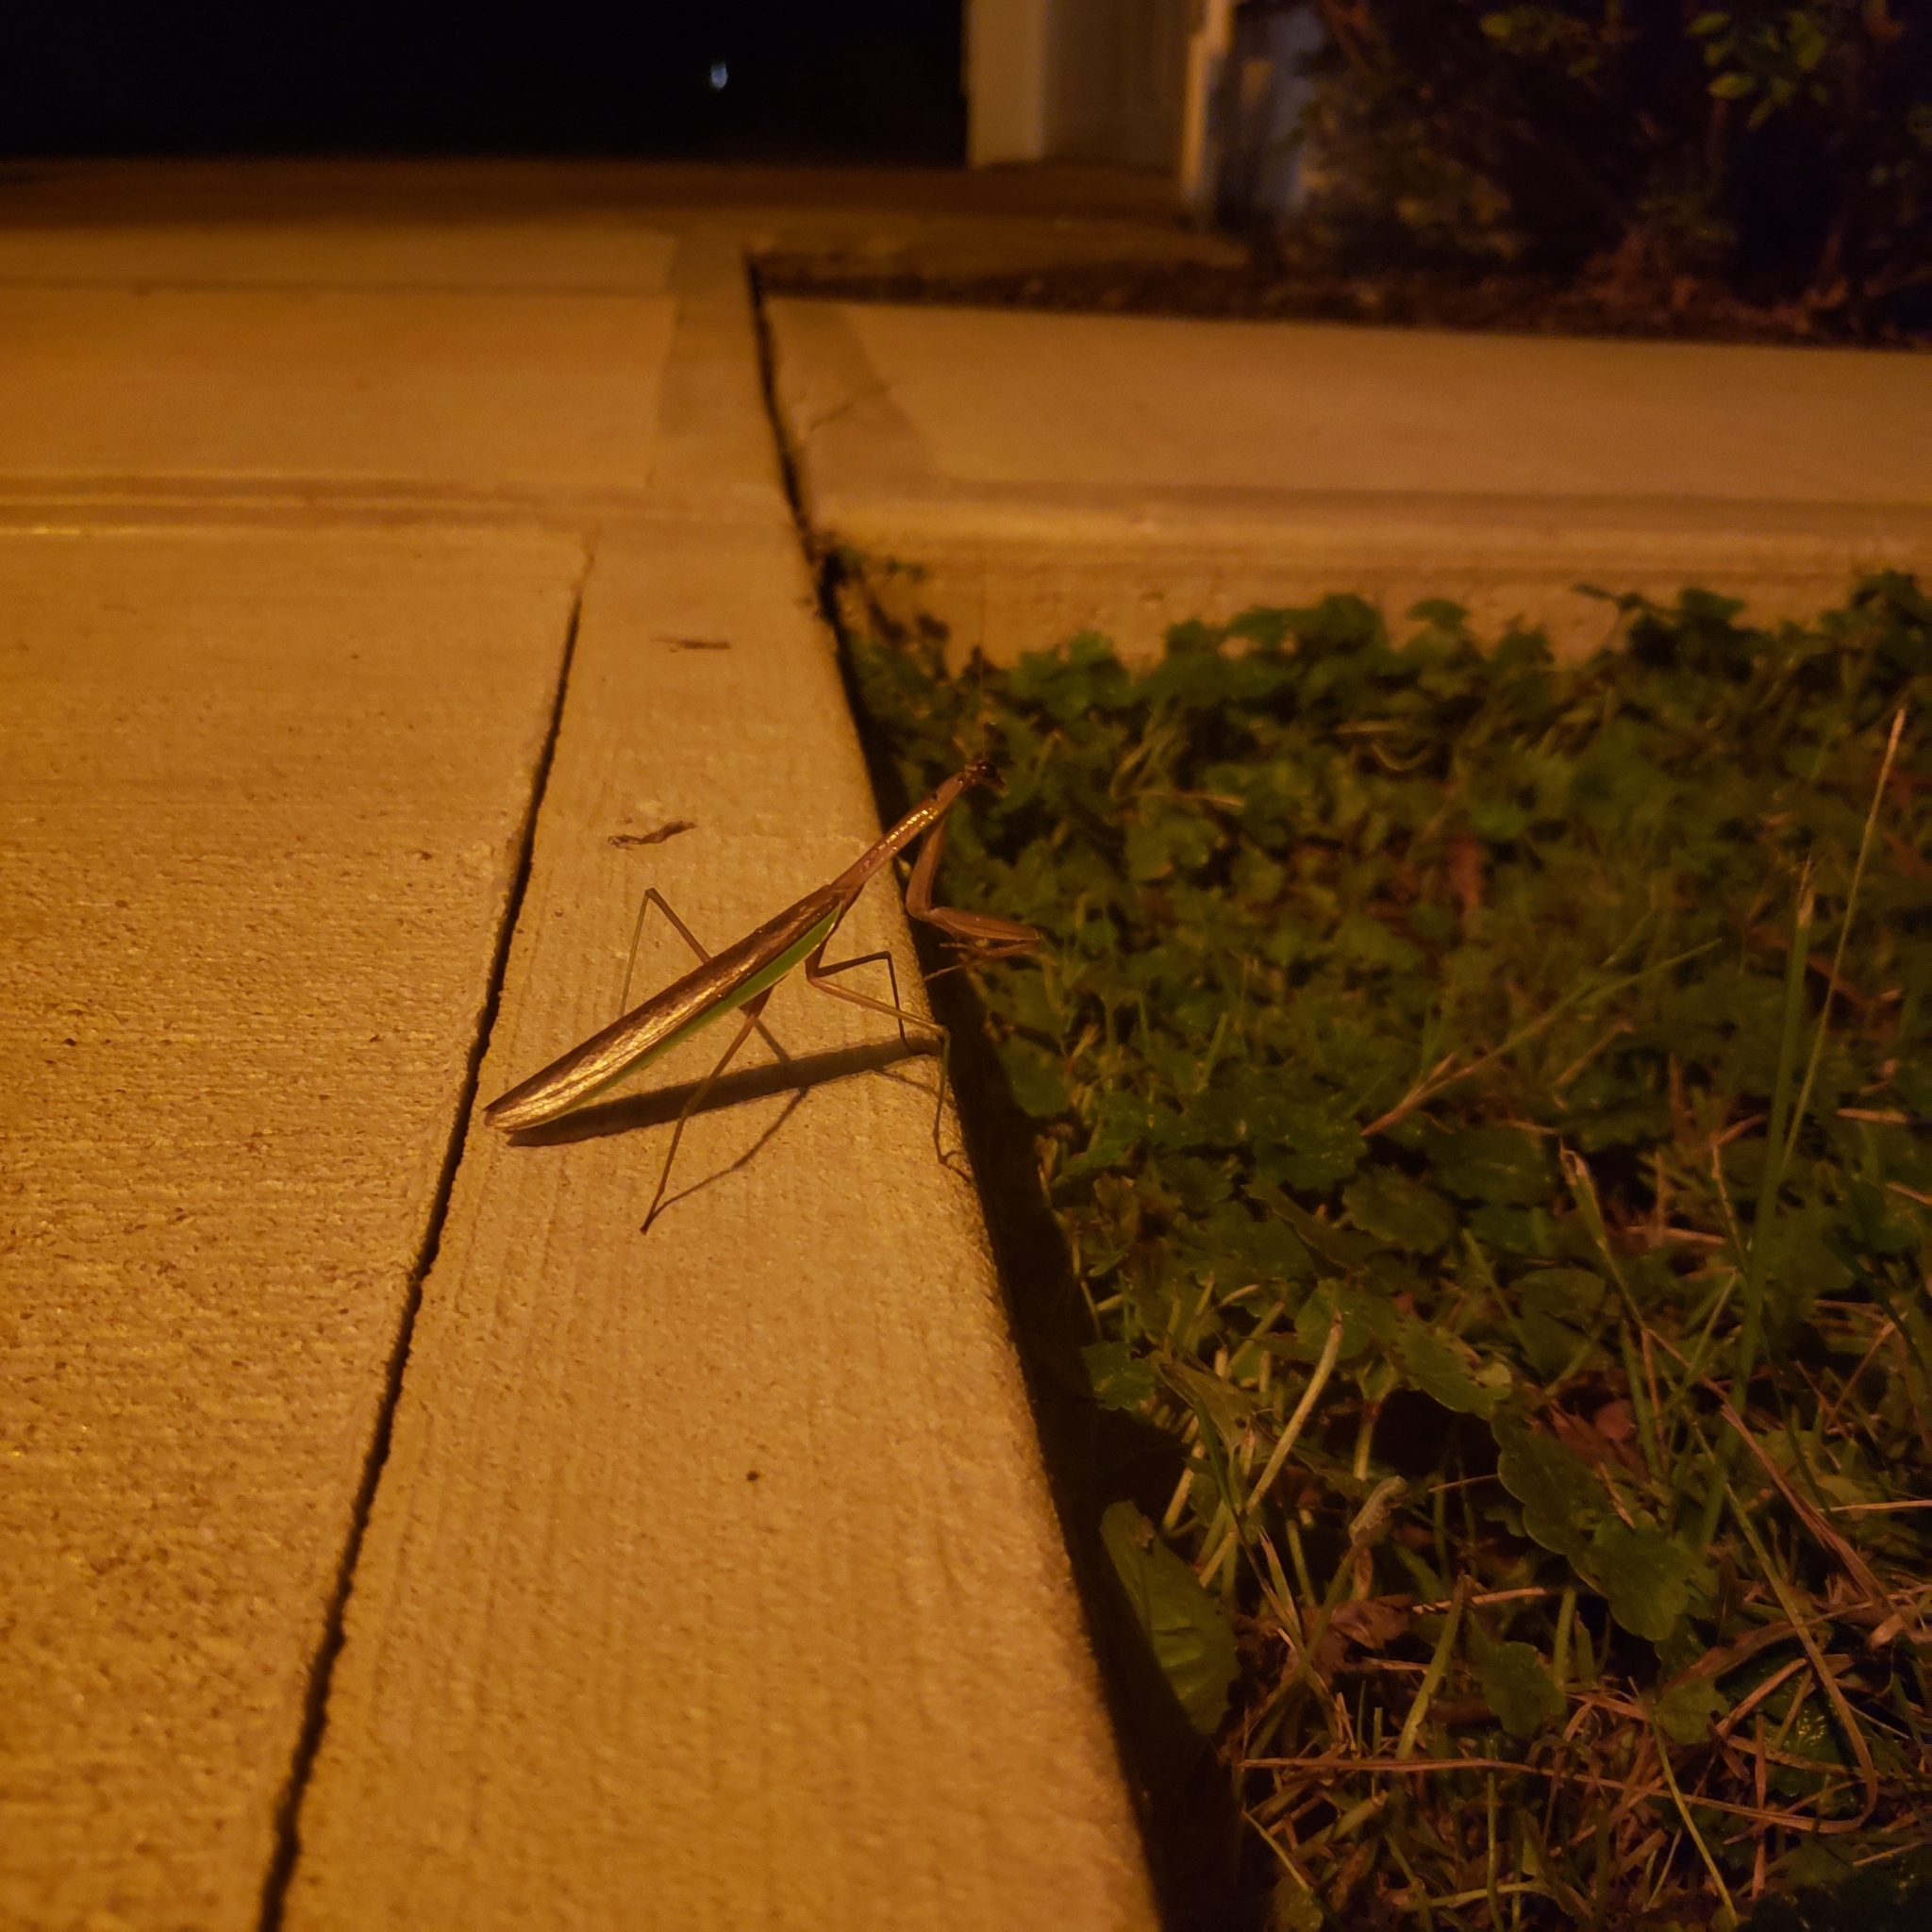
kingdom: Animalia
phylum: Arthropoda
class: Insecta
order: Mantodea
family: Mantidae
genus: Tenodera
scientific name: Tenodera sinensis
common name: Chinese mantis
